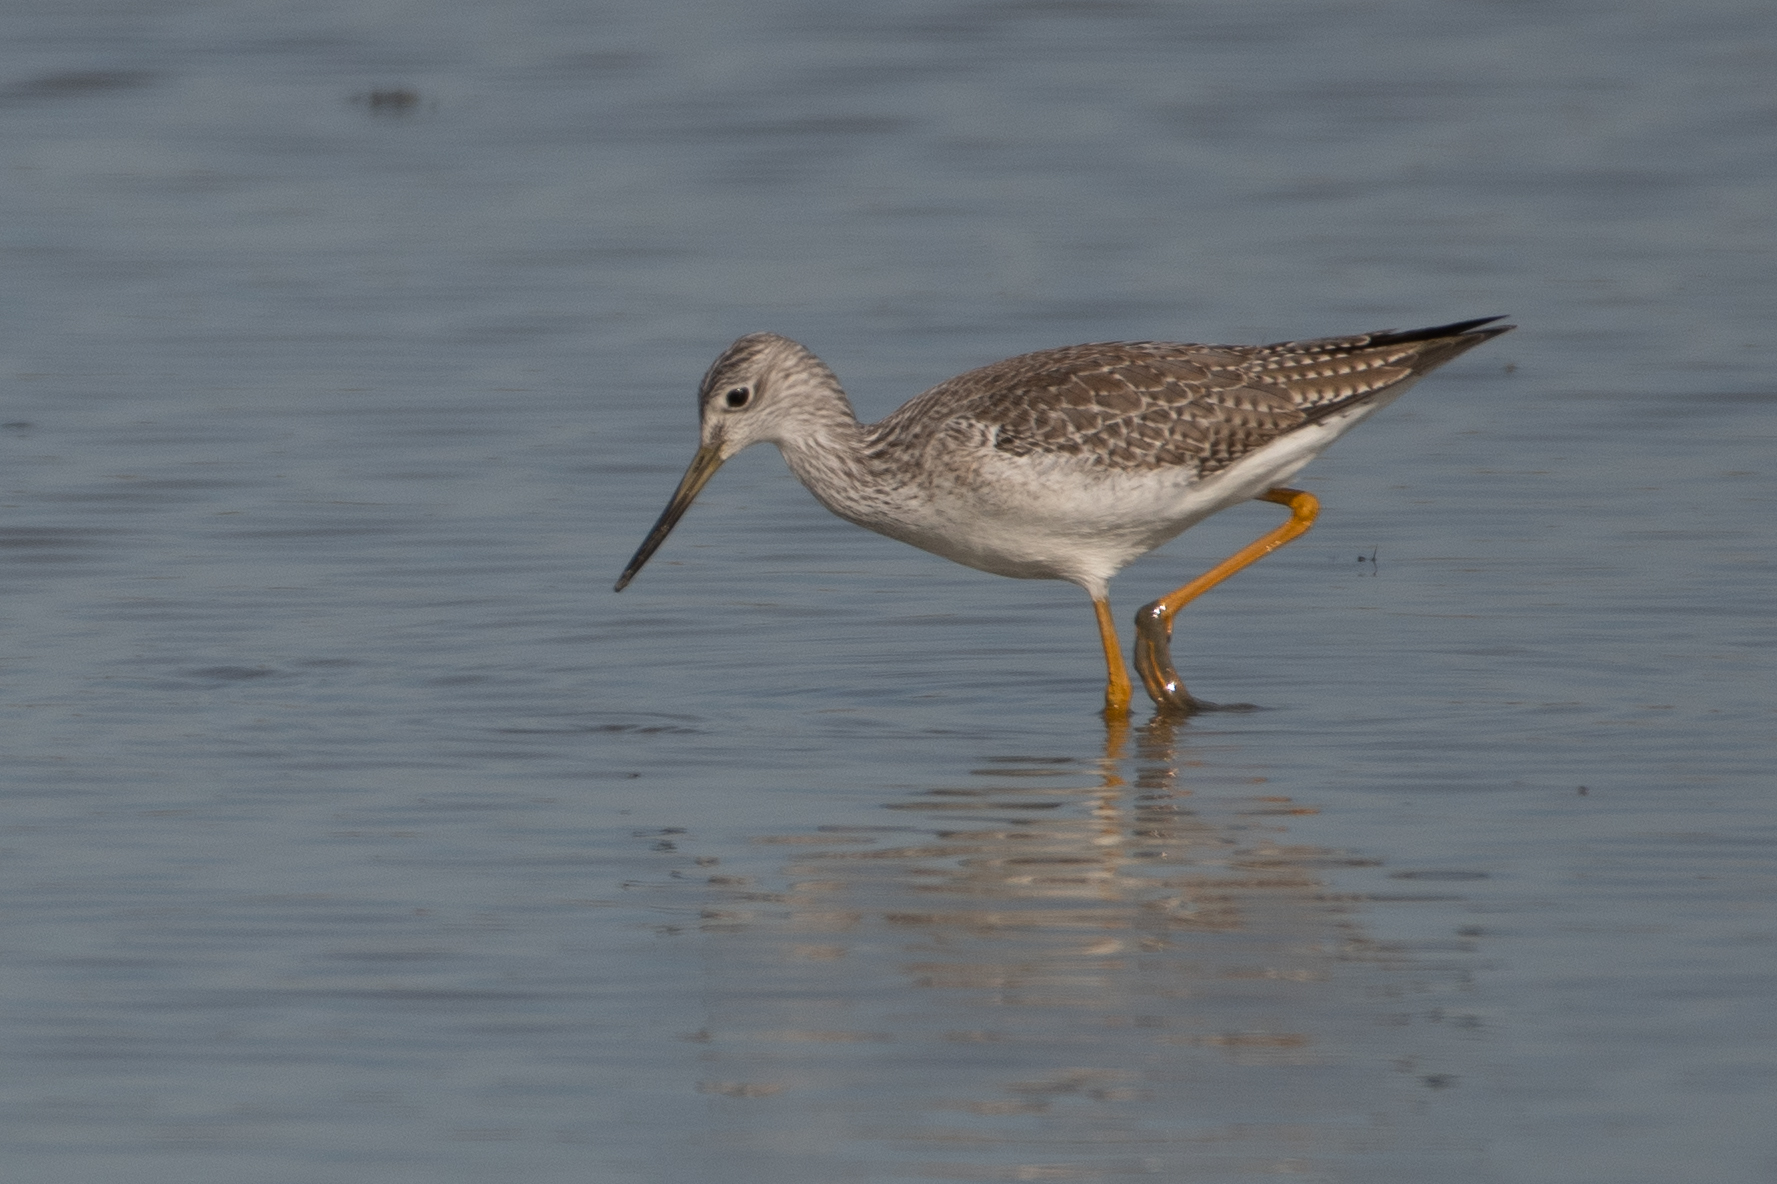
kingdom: Animalia
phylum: Chordata
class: Aves
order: Charadriiformes
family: Scolopacidae
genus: Tringa
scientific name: Tringa melanoleuca
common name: Greater yellowlegs
